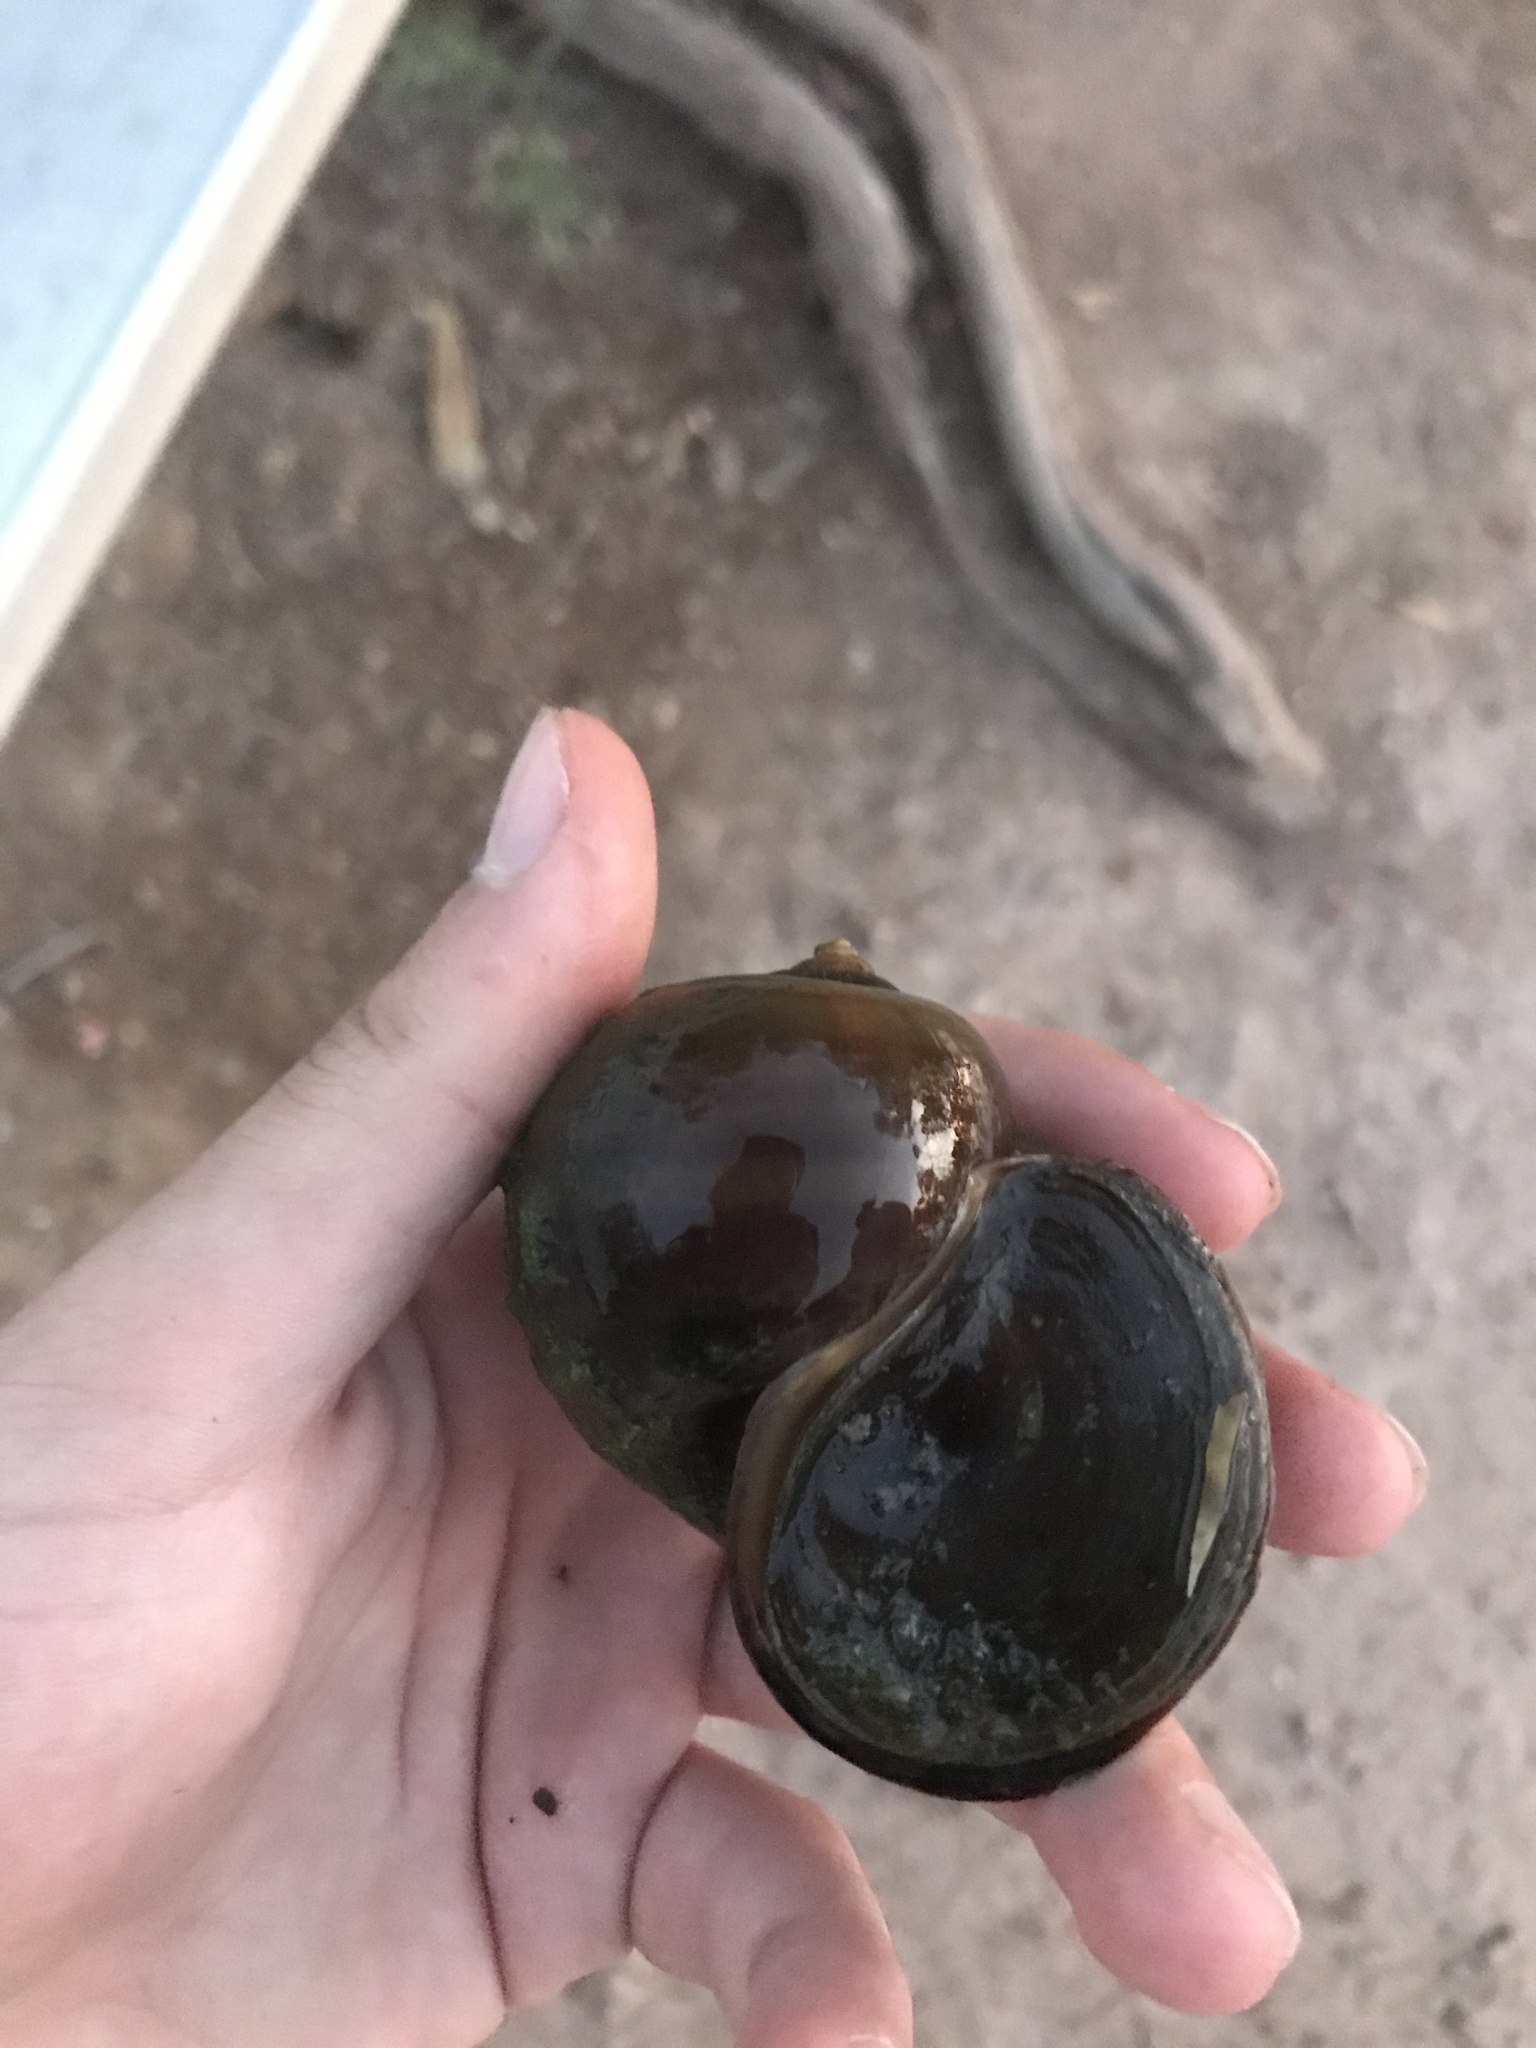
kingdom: Animalia
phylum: Mollusca
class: Gastropoda
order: Architaenioglossa
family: Ampullariidae
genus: Pomacea
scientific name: Pomacea canaliculata
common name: Channeled applesnail
